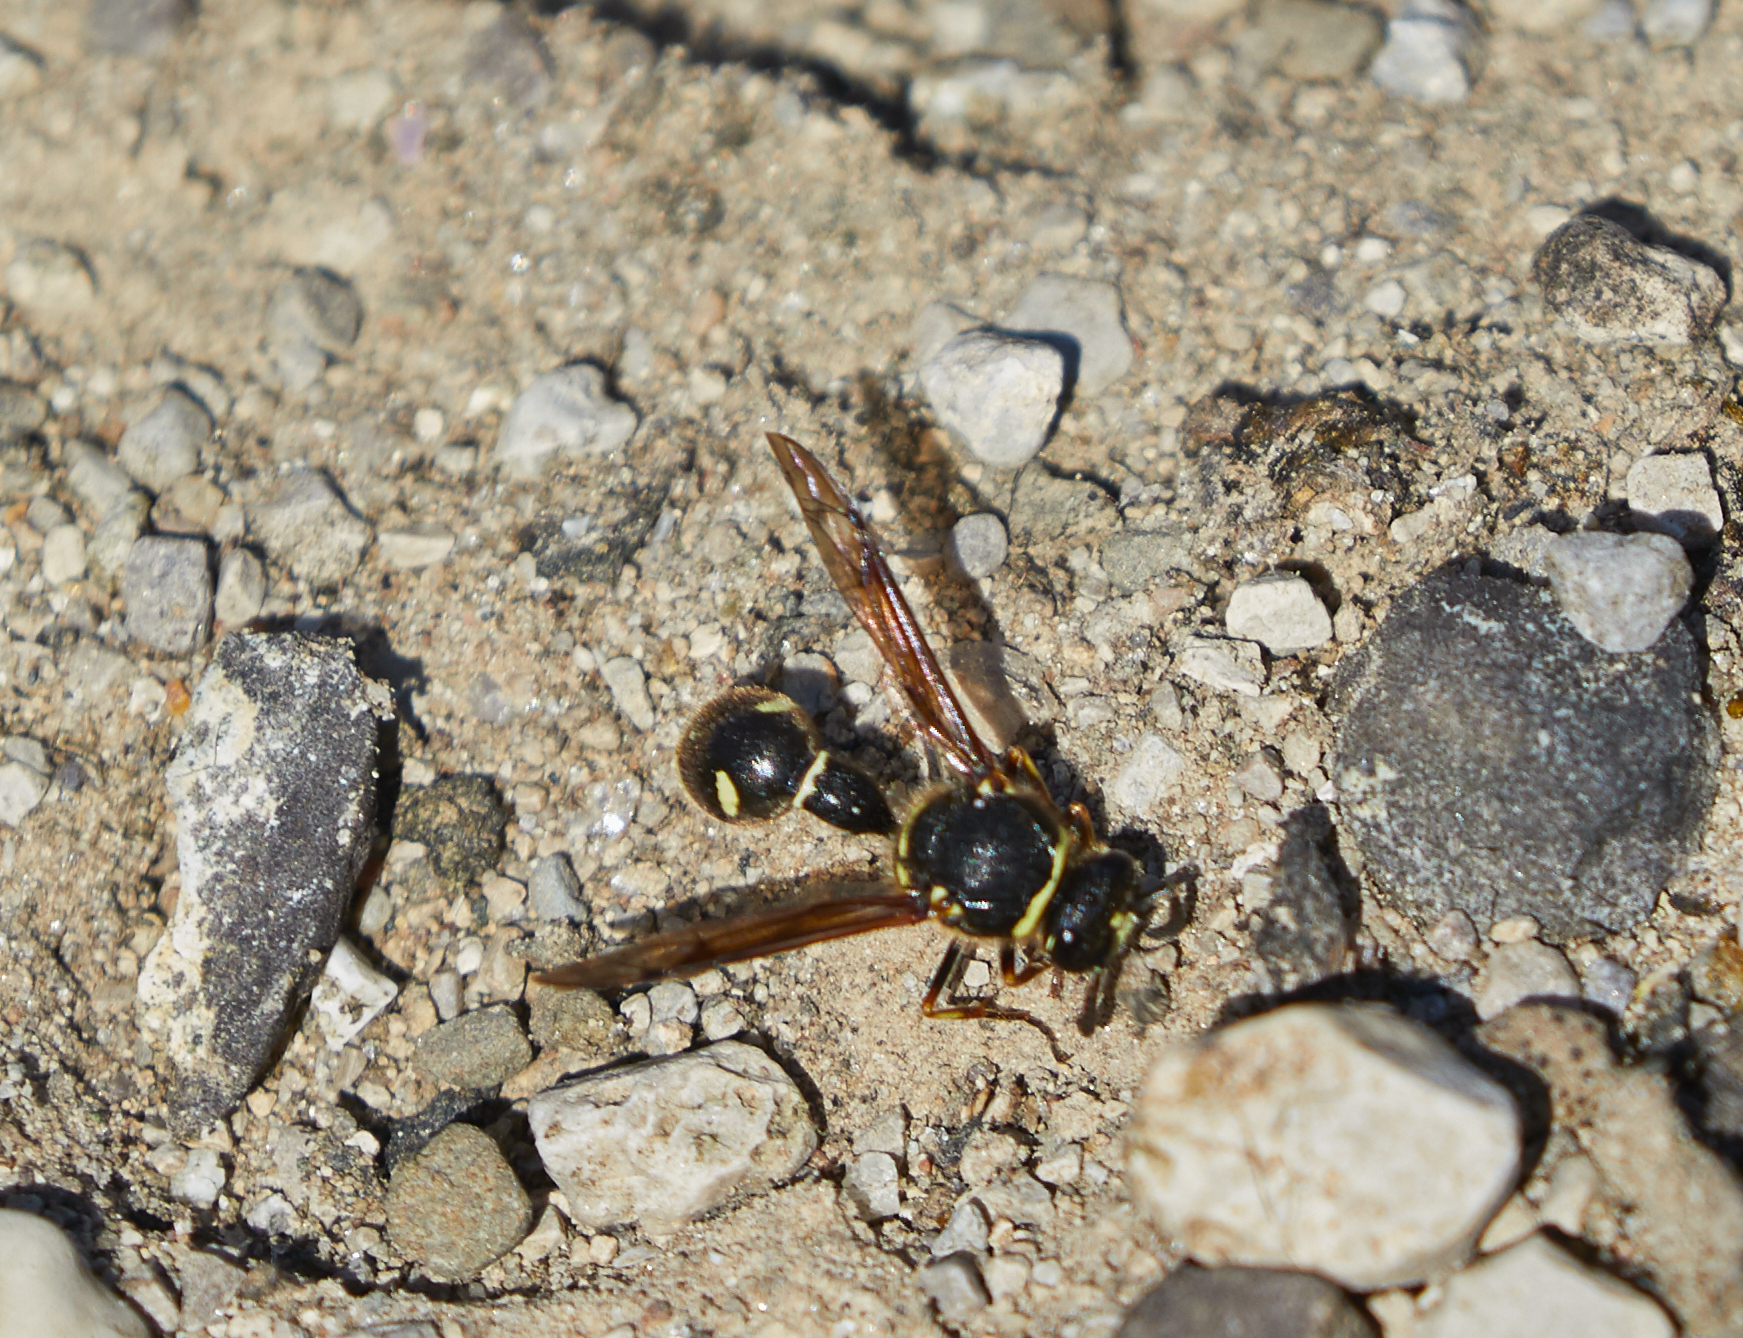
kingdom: Animalia
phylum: Arthropoda
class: Insecta
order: Hymenoptera
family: Vespidae
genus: Eumenes
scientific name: Eumenes crucifera
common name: Cross potter wasp
